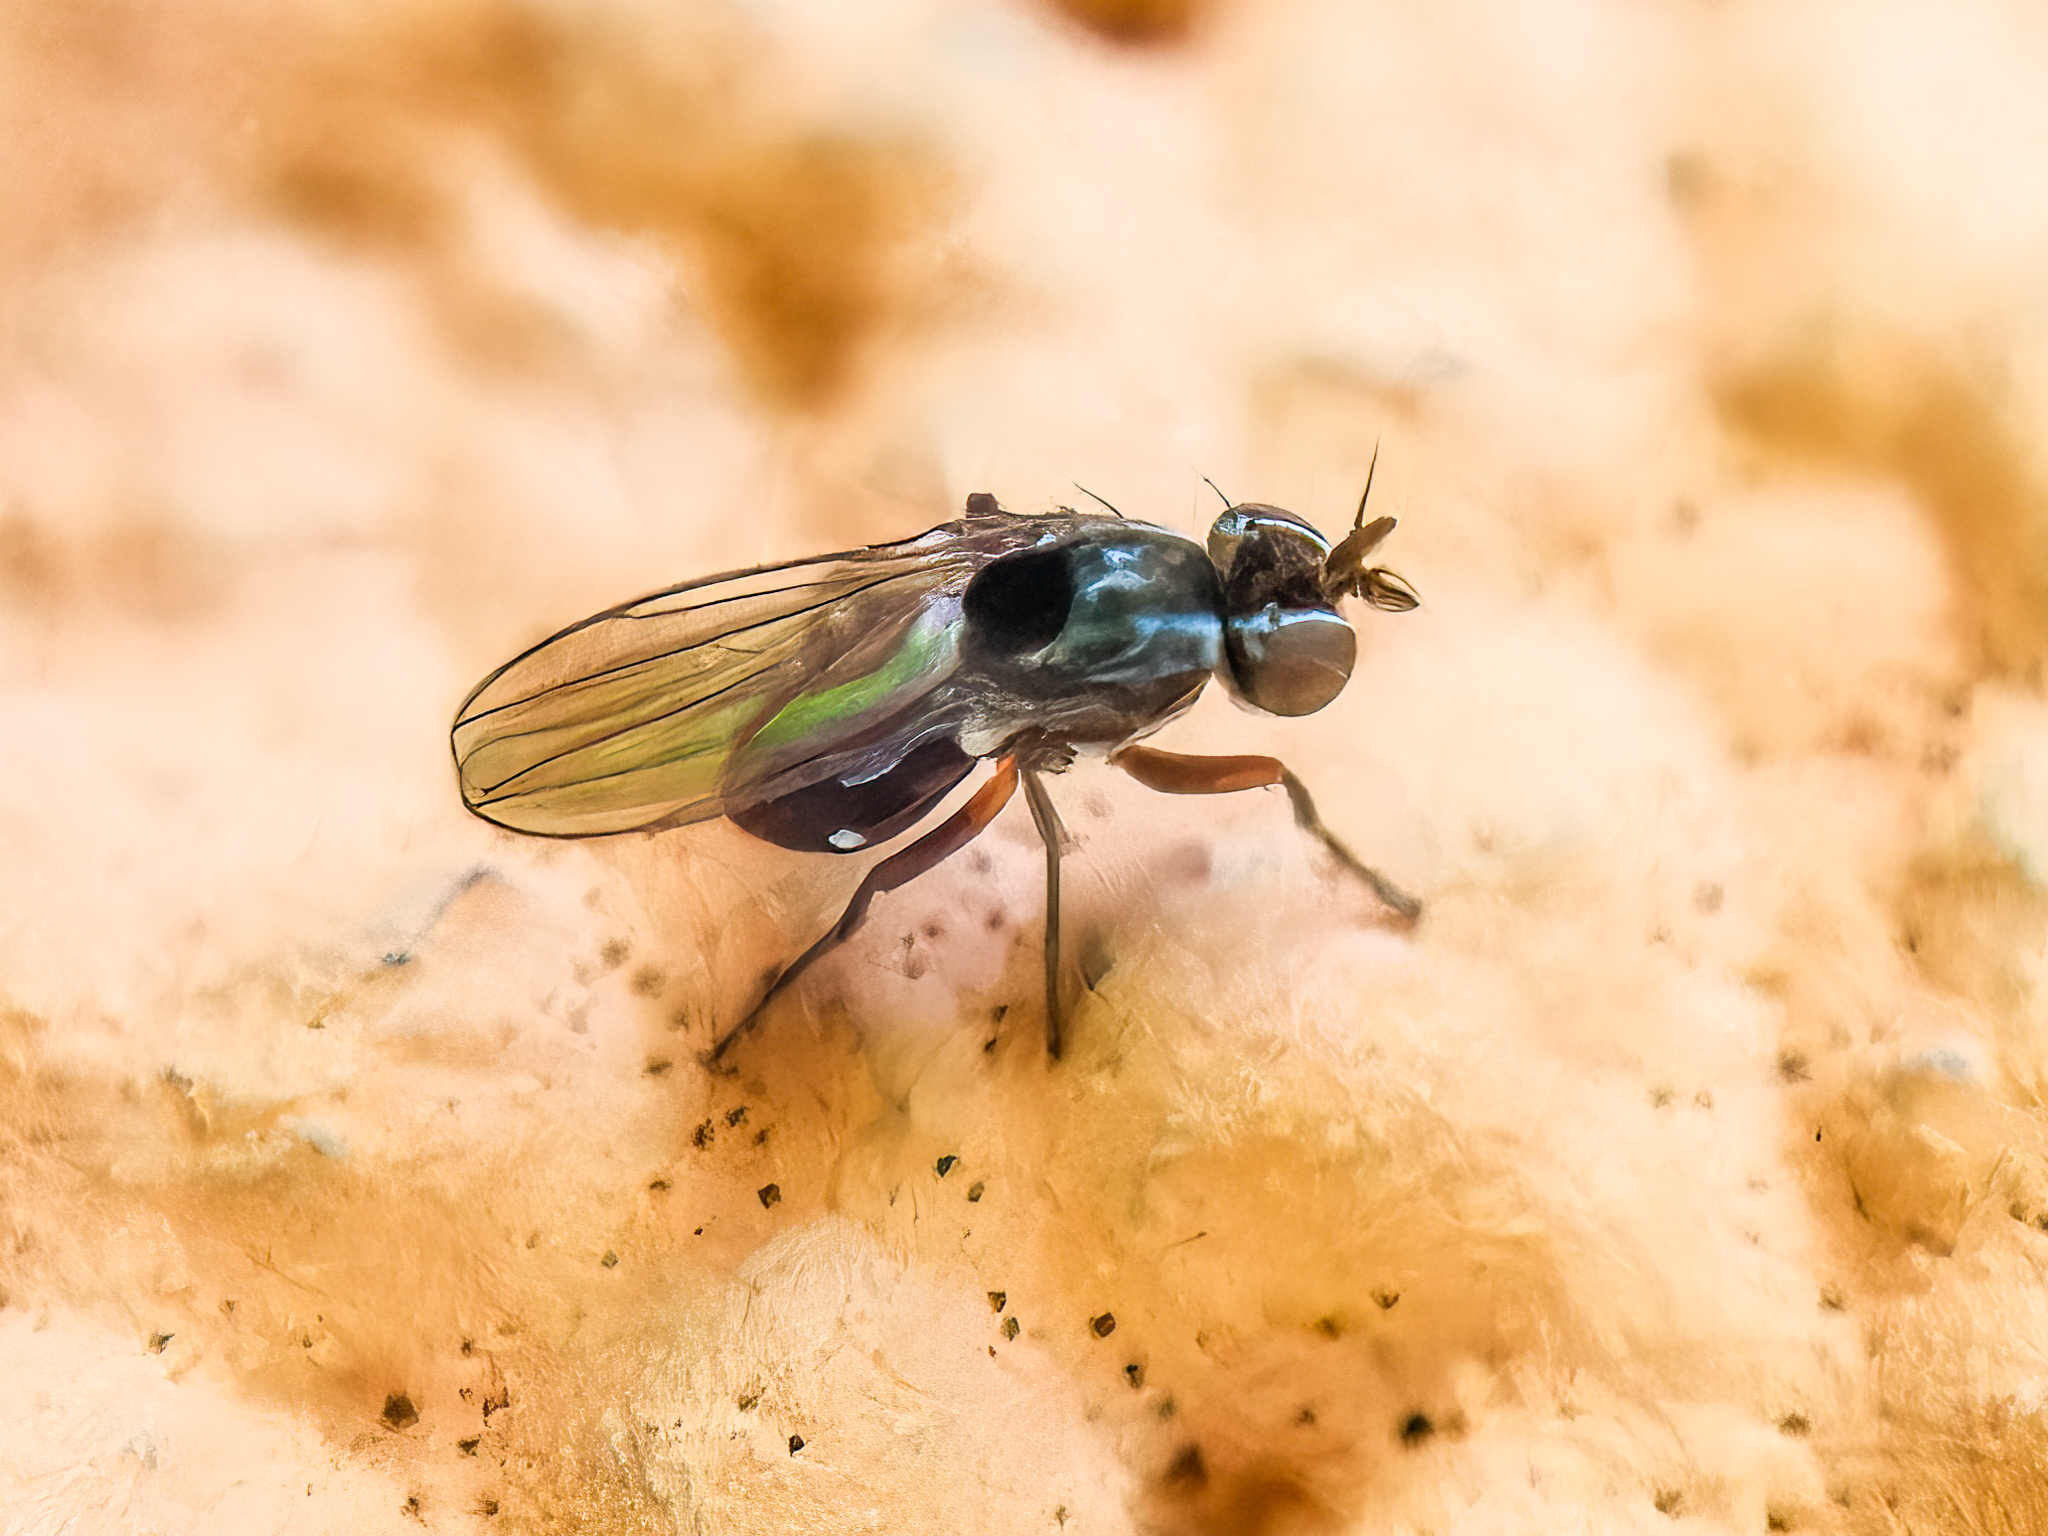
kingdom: Animalia
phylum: Arthropoda
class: Insecta
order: Diptera
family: Ephydridae
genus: Nostima
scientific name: Nostima picta
